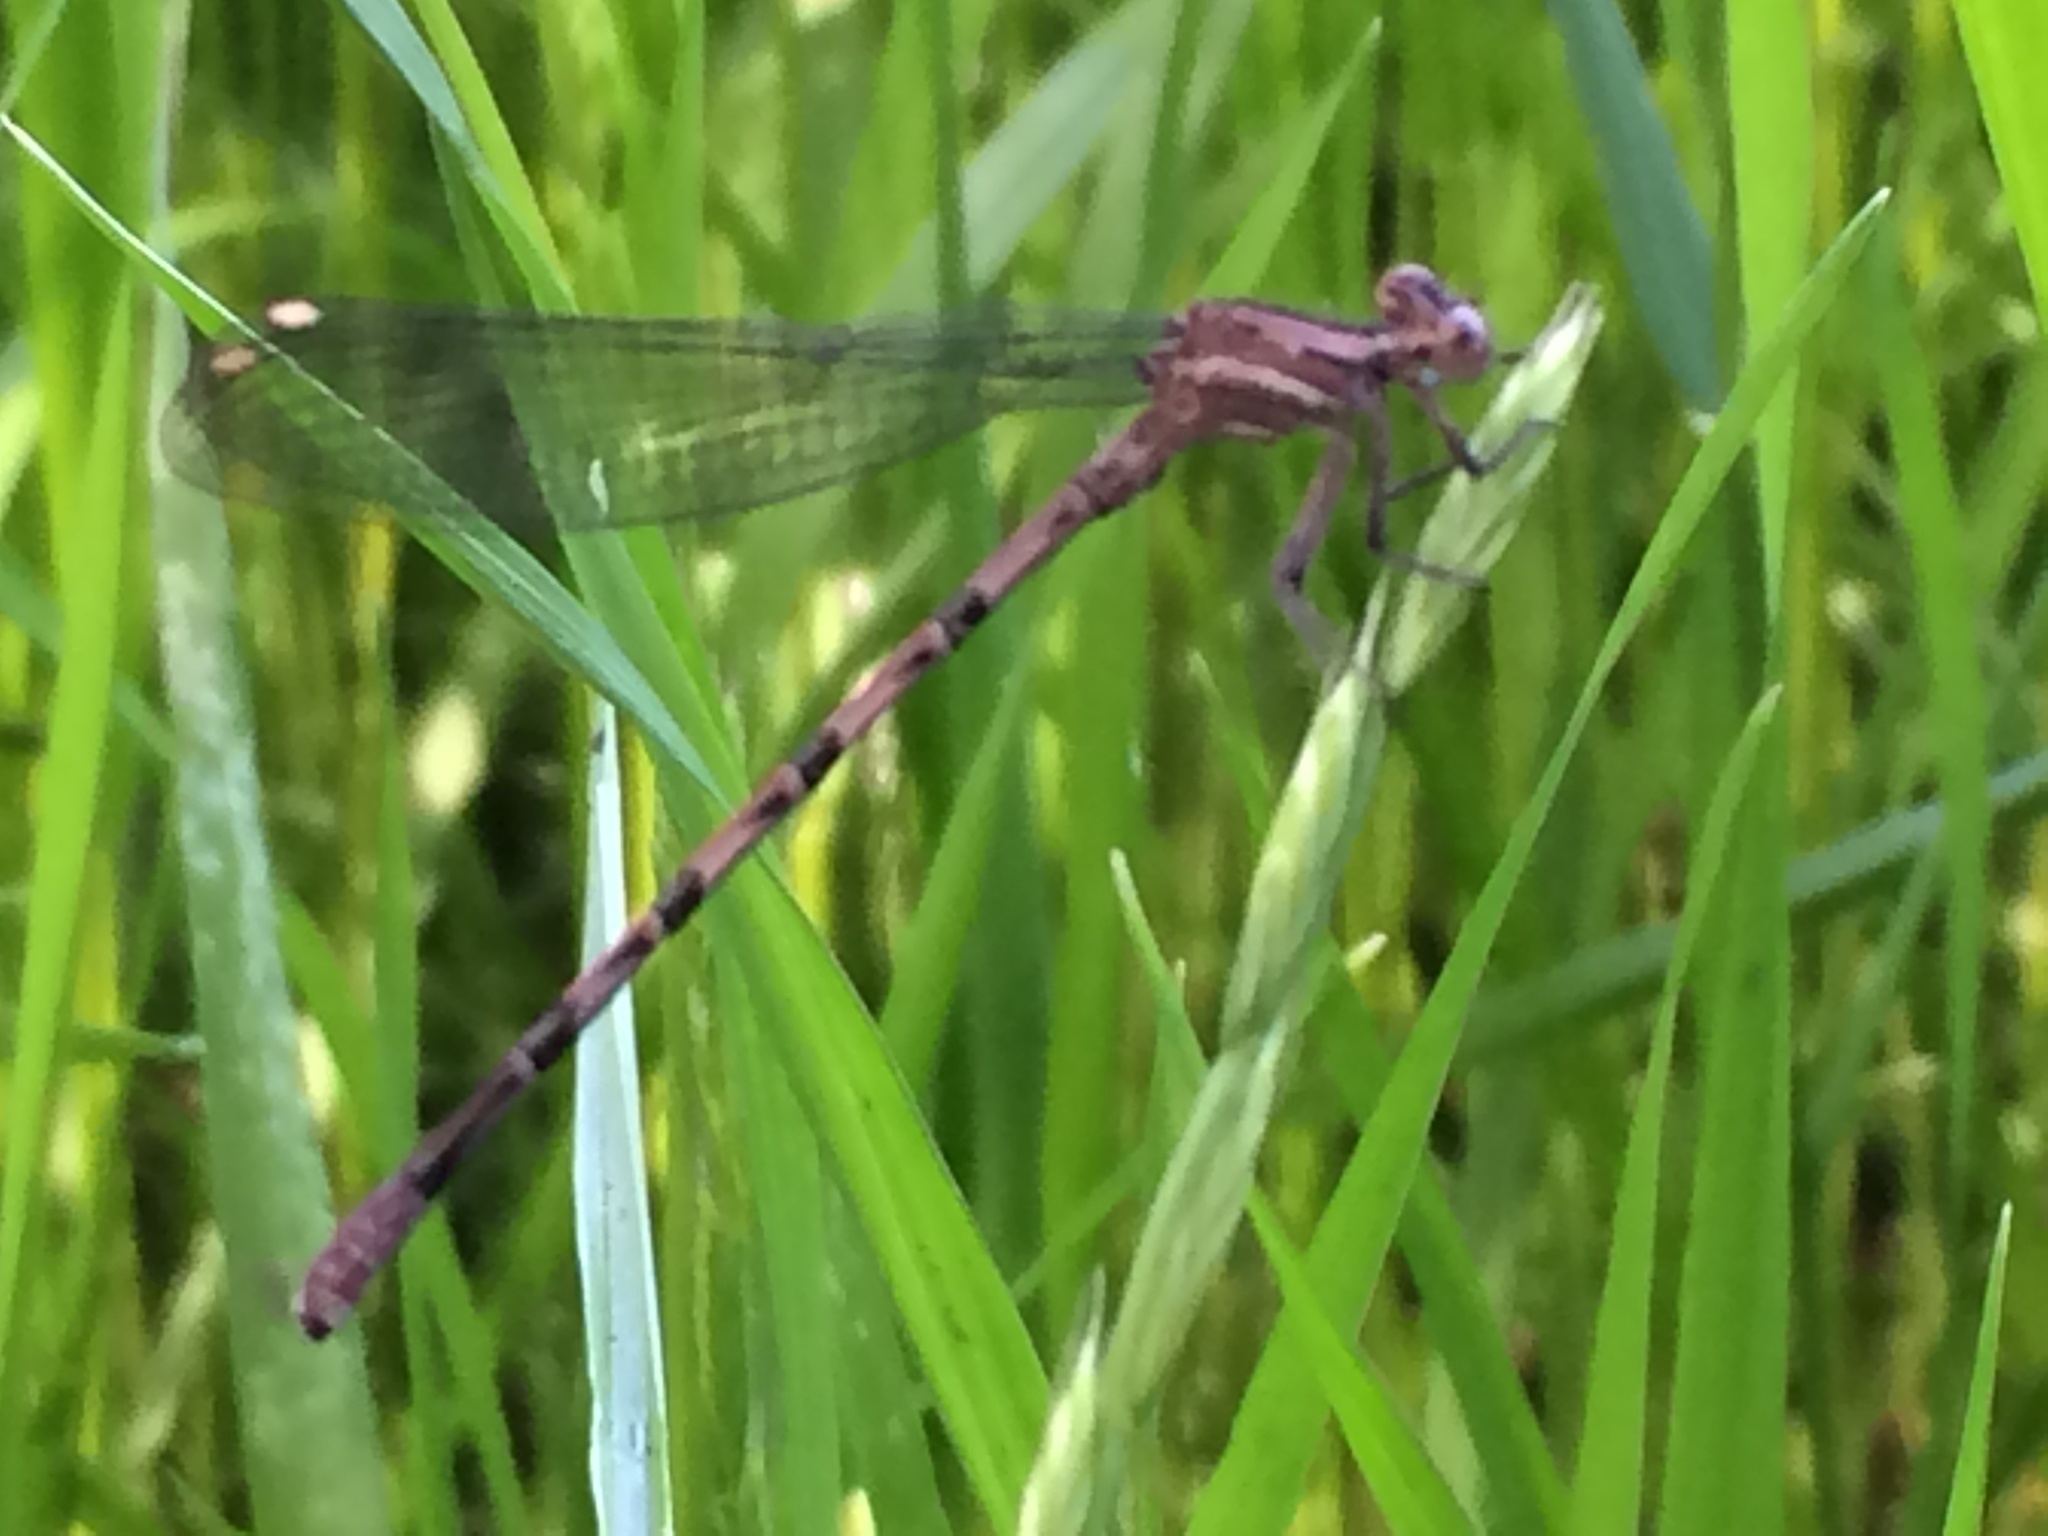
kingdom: Animalia
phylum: Arthropoda
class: Insecta
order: Odonata
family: Coenagrionidae
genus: Argia
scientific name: Argia vivida
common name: Vivid dancer
